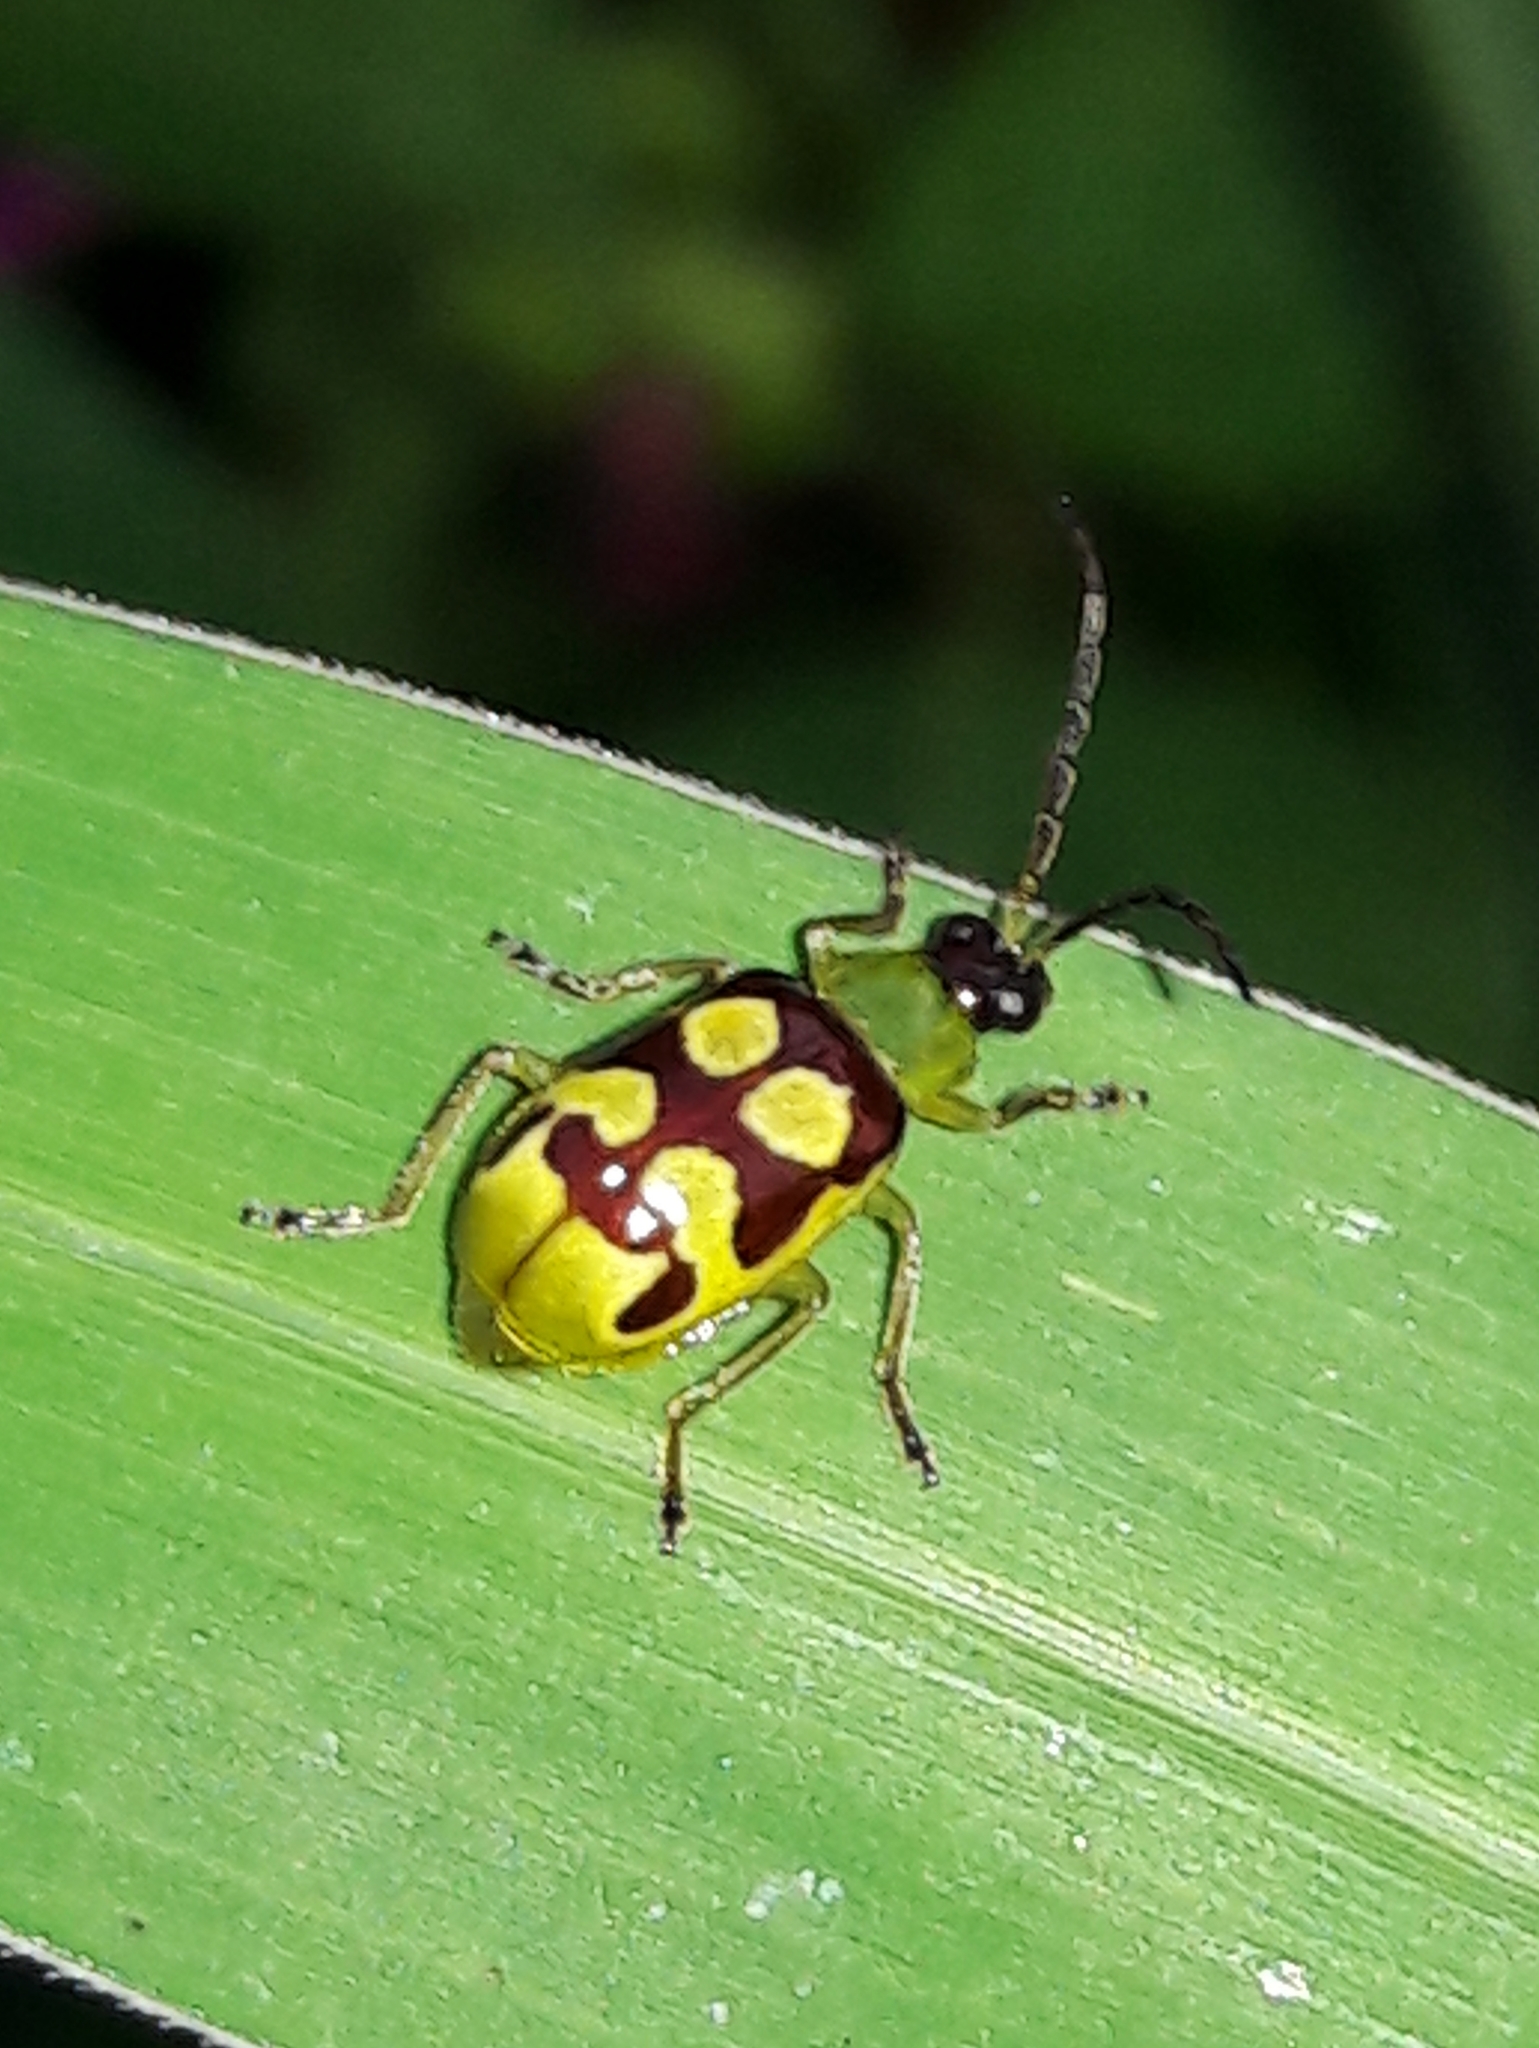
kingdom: Animalia
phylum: Arthropoda
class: Insecta
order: Coleoptera
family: Chrysomelidae
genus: Basiprionota
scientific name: Basiprionota sinuata
